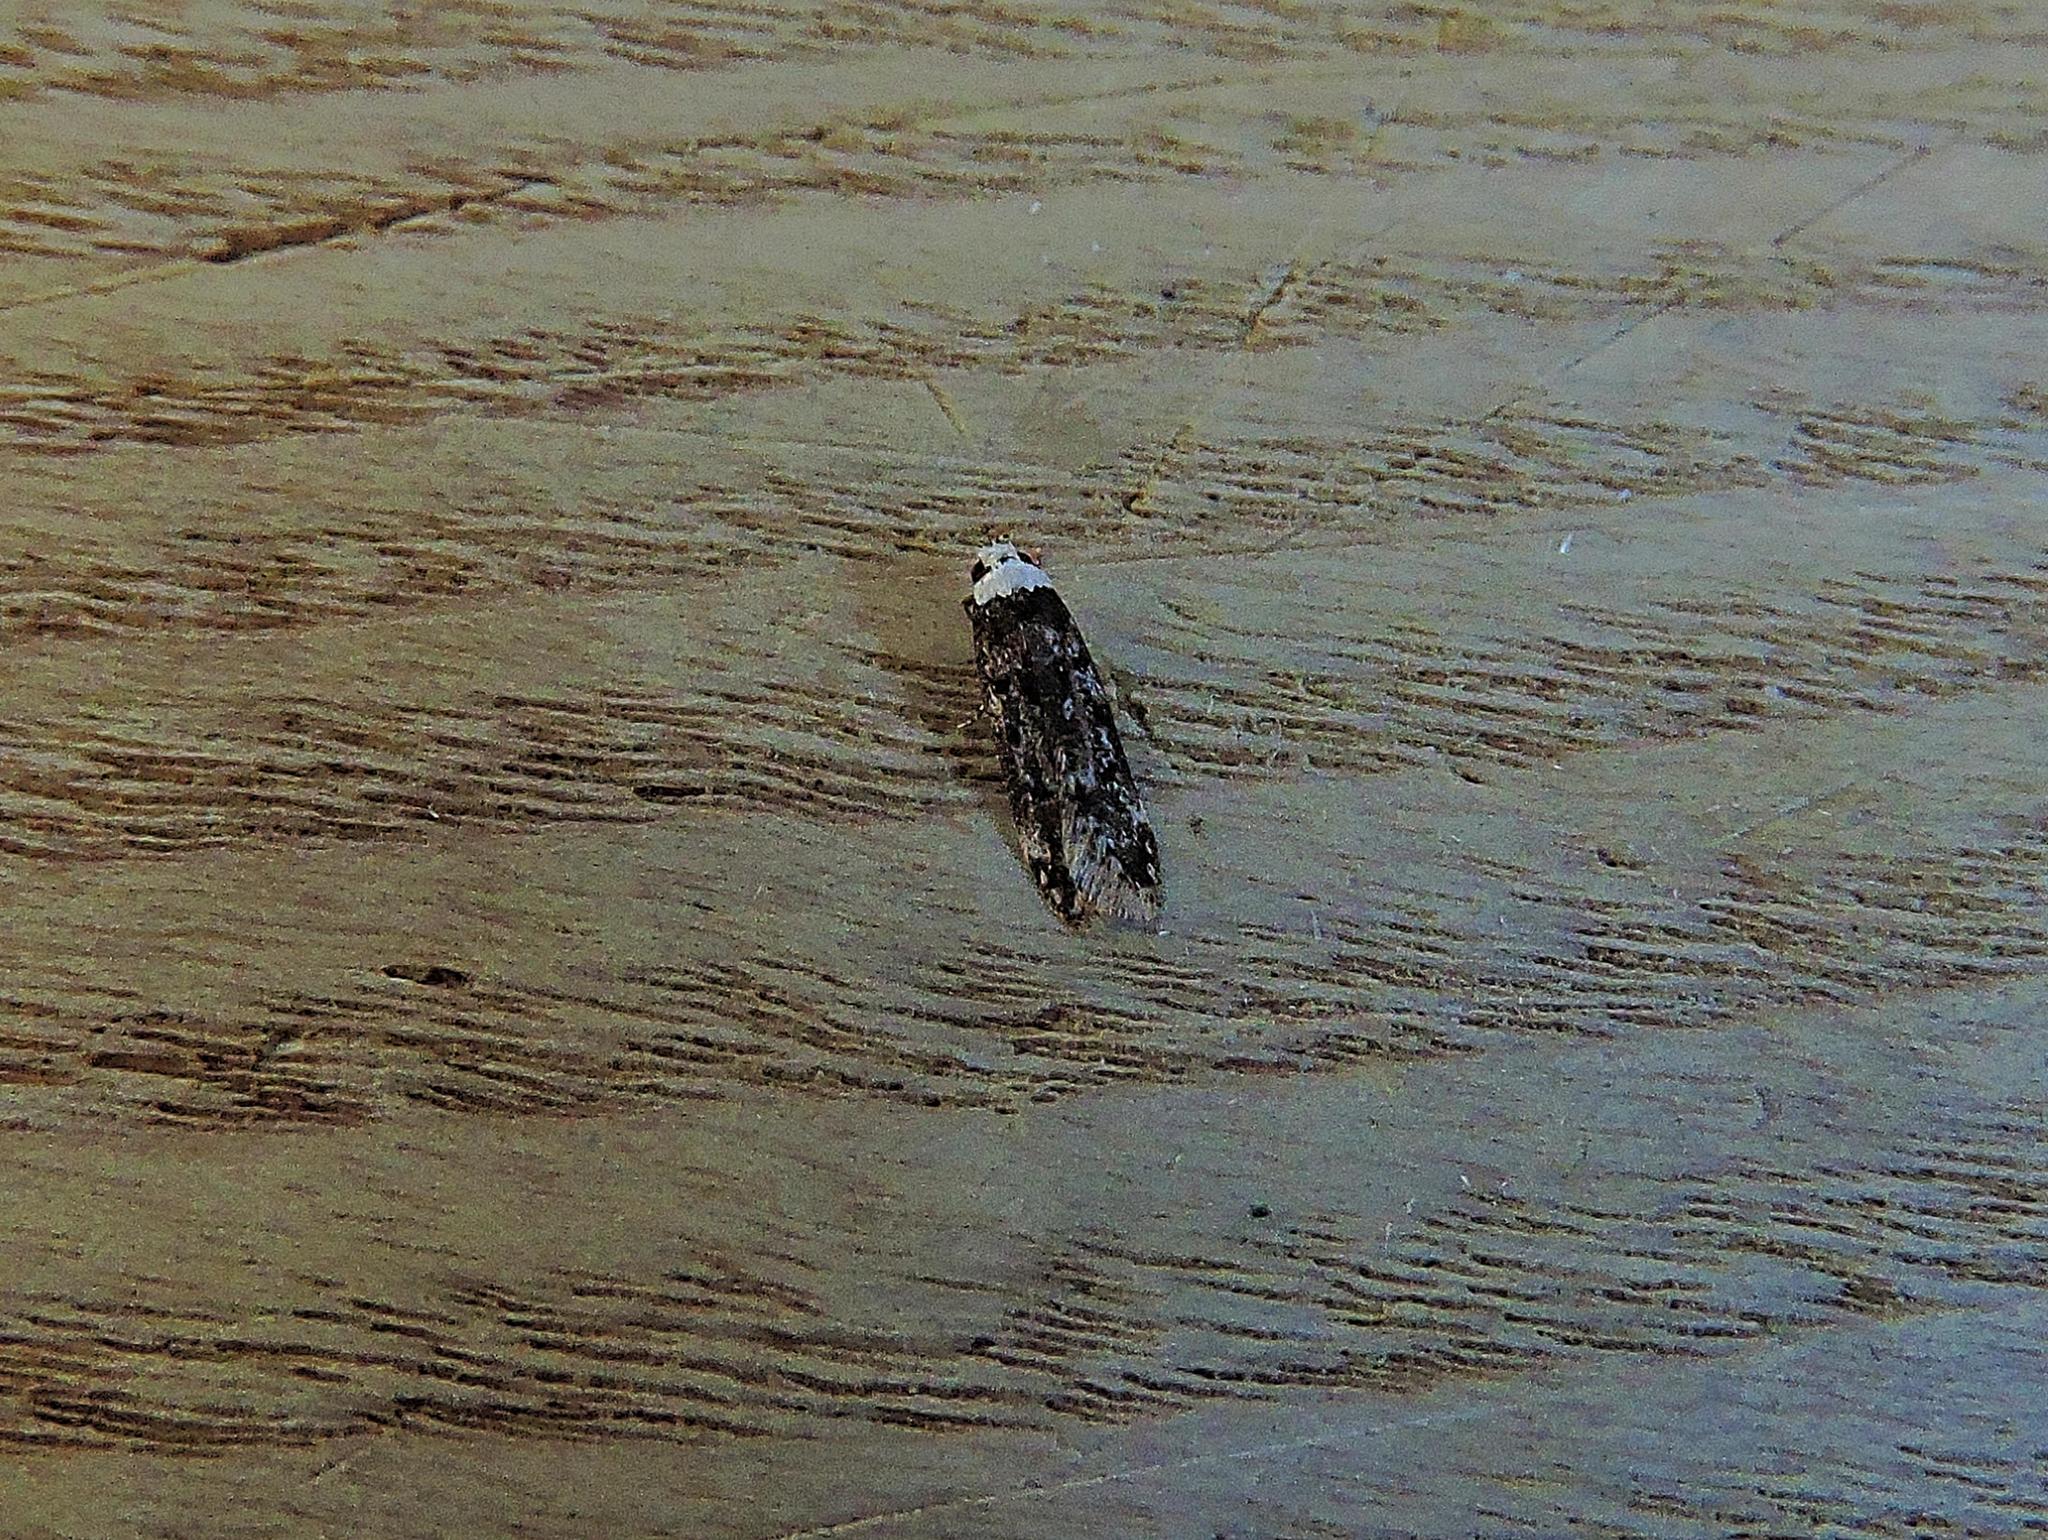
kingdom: Animalia
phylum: Arthropoda
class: Insecta
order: Lepidoptera
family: Oecophoridae
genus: Endrosis
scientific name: Endrosis sarcitrella
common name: White-shouldered house moth
